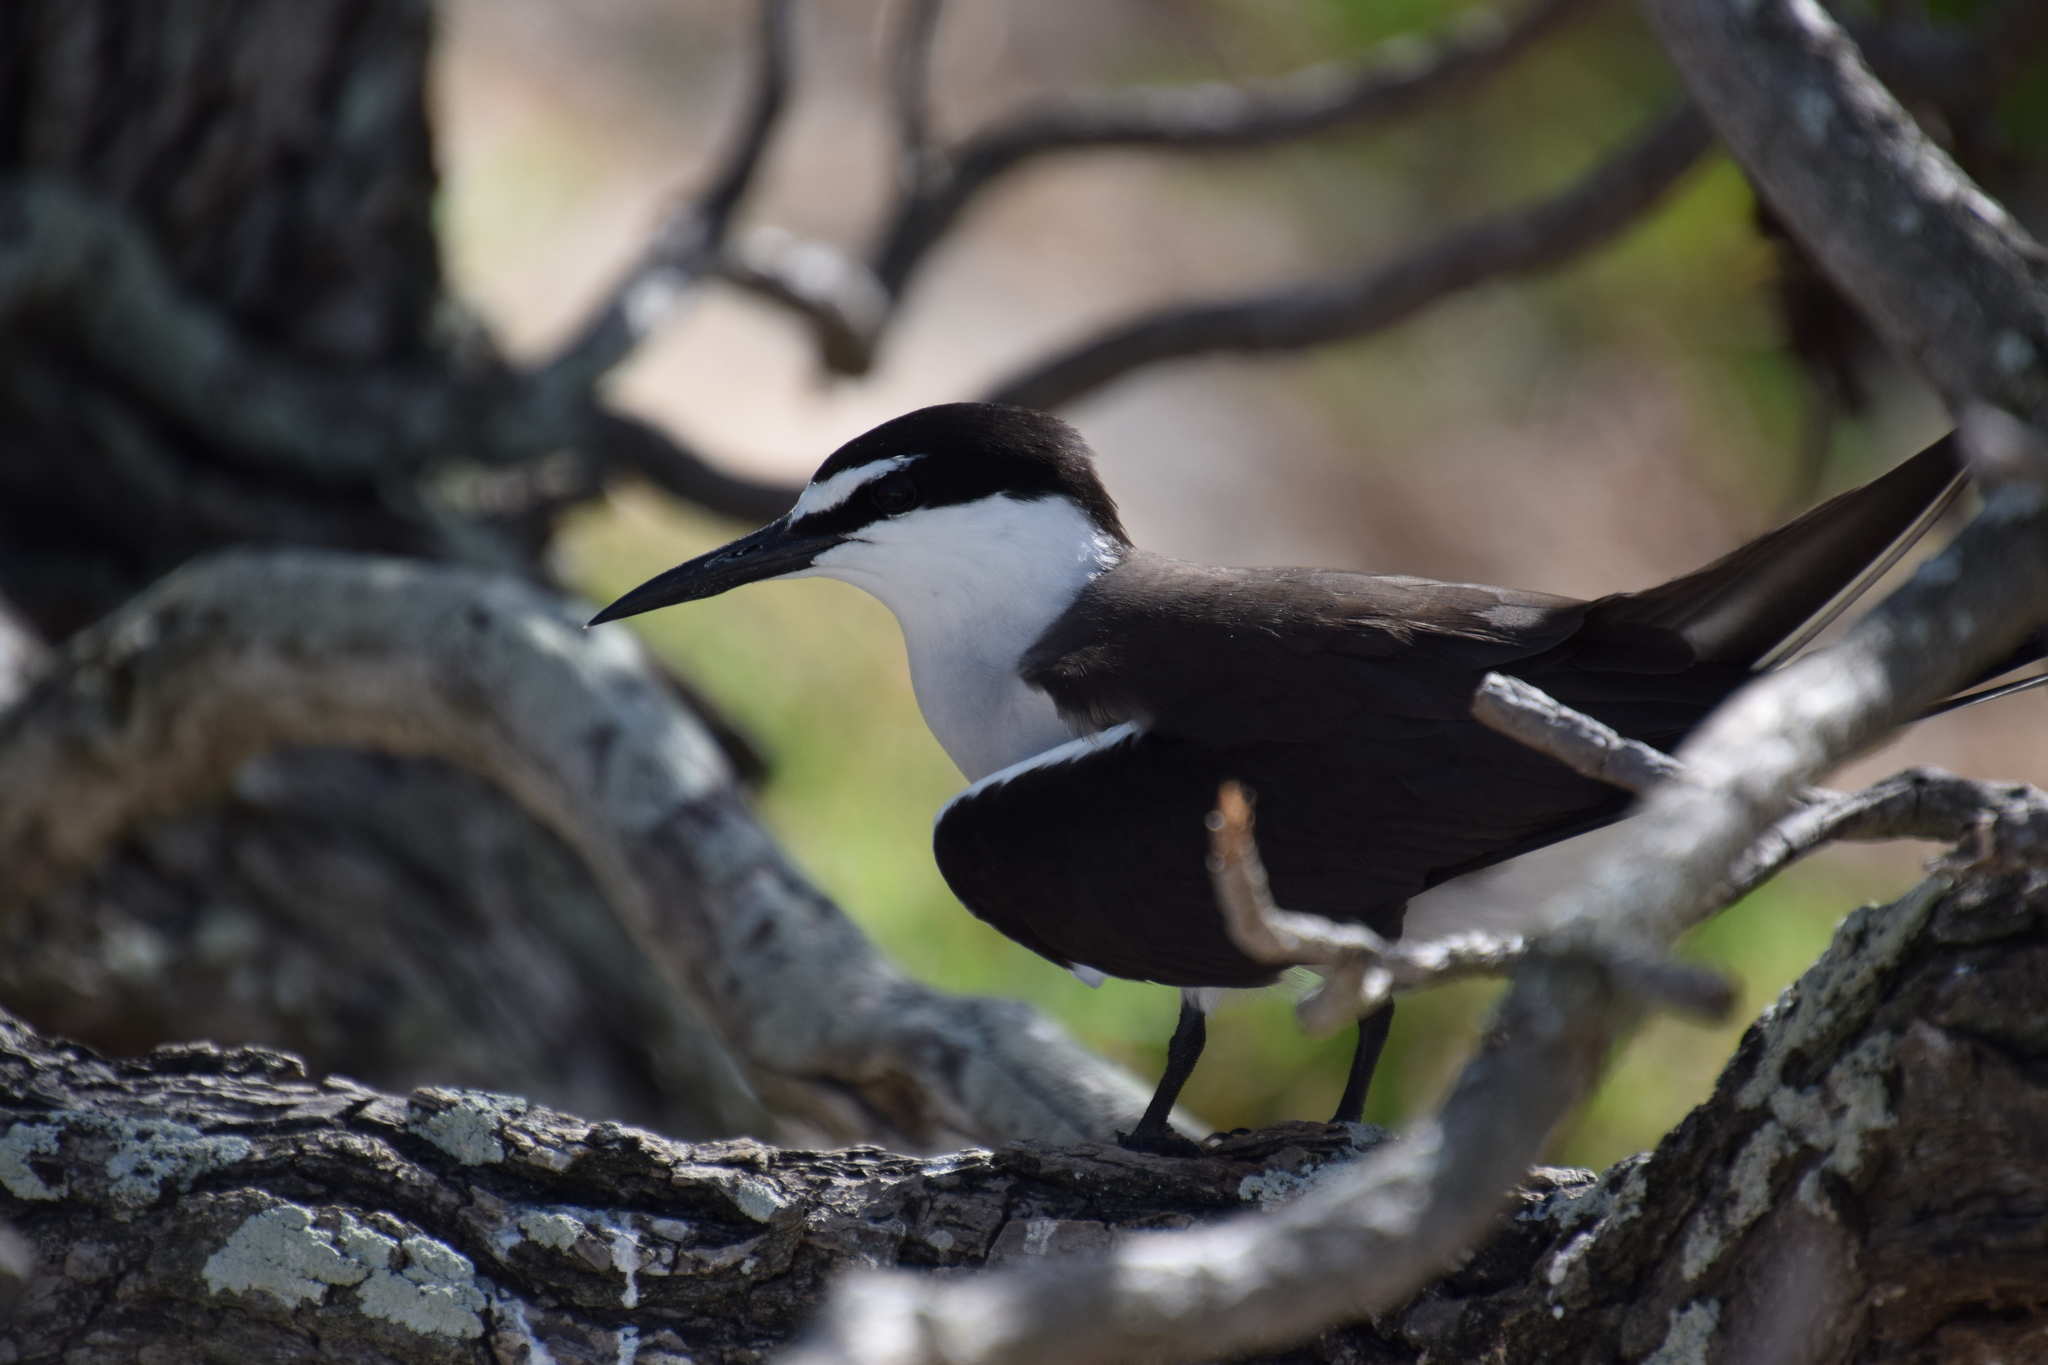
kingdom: Animalia
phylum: Chordata
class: Aves
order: Charadriiformes
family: Laridae
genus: Onychoprion
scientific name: Onychoprion anaethetus
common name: Bridled tern
